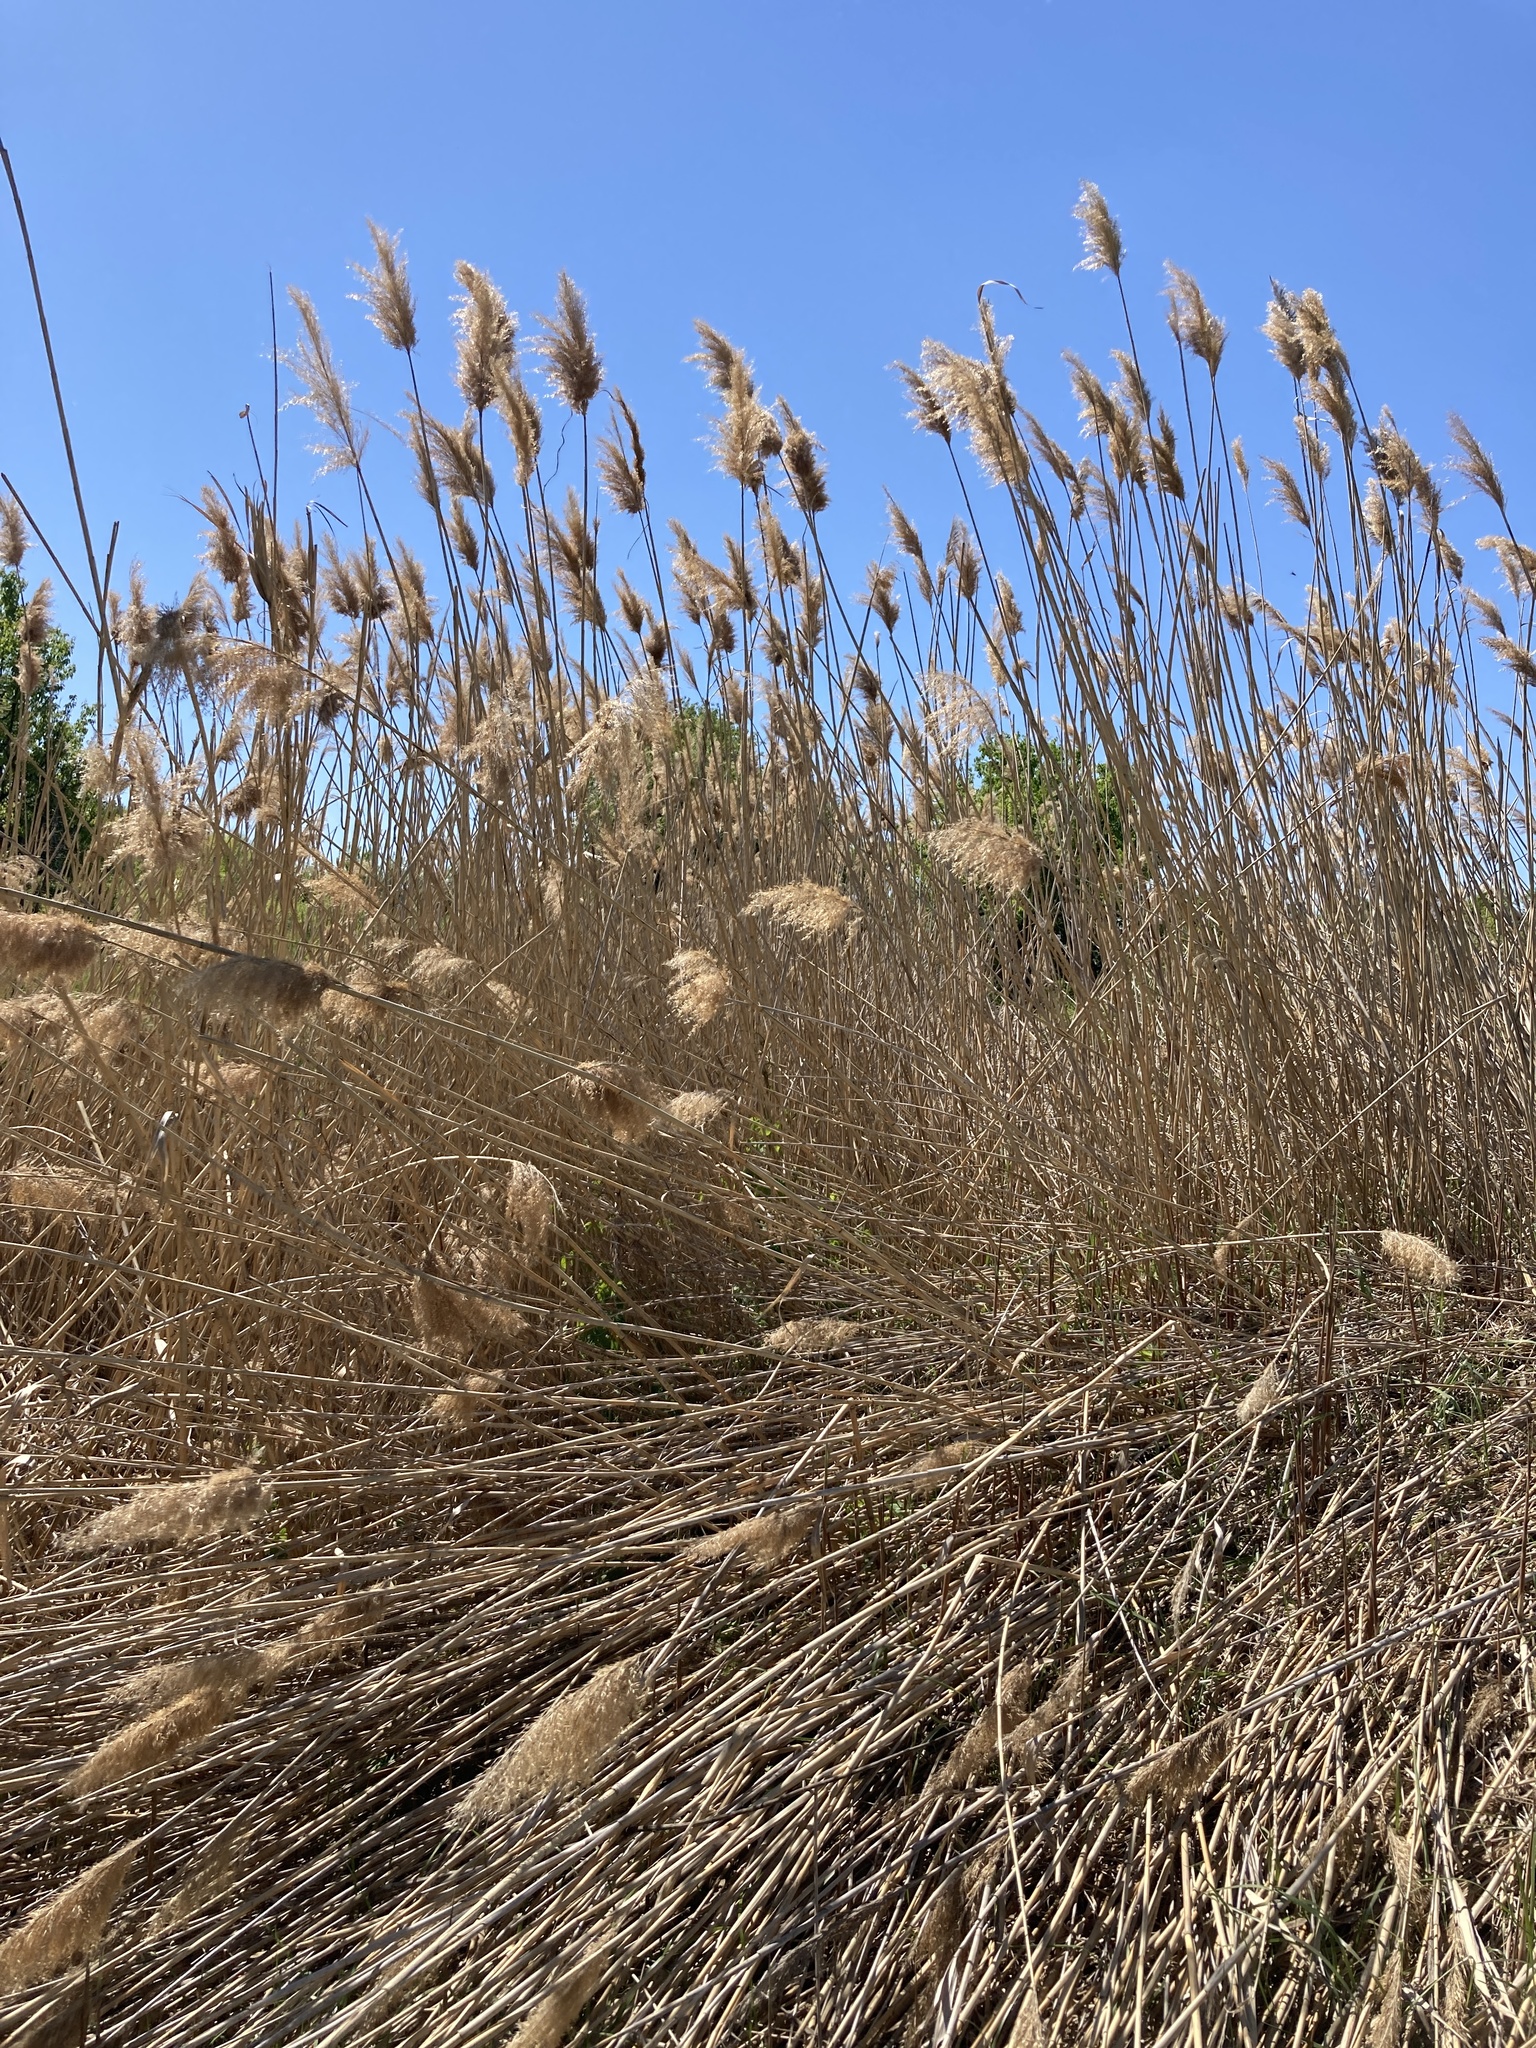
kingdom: Plantae
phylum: Tracheophyta
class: Liliopsida
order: Poales
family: Poaceae
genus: Phragmites
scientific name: Phragmites australis
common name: Common reed
